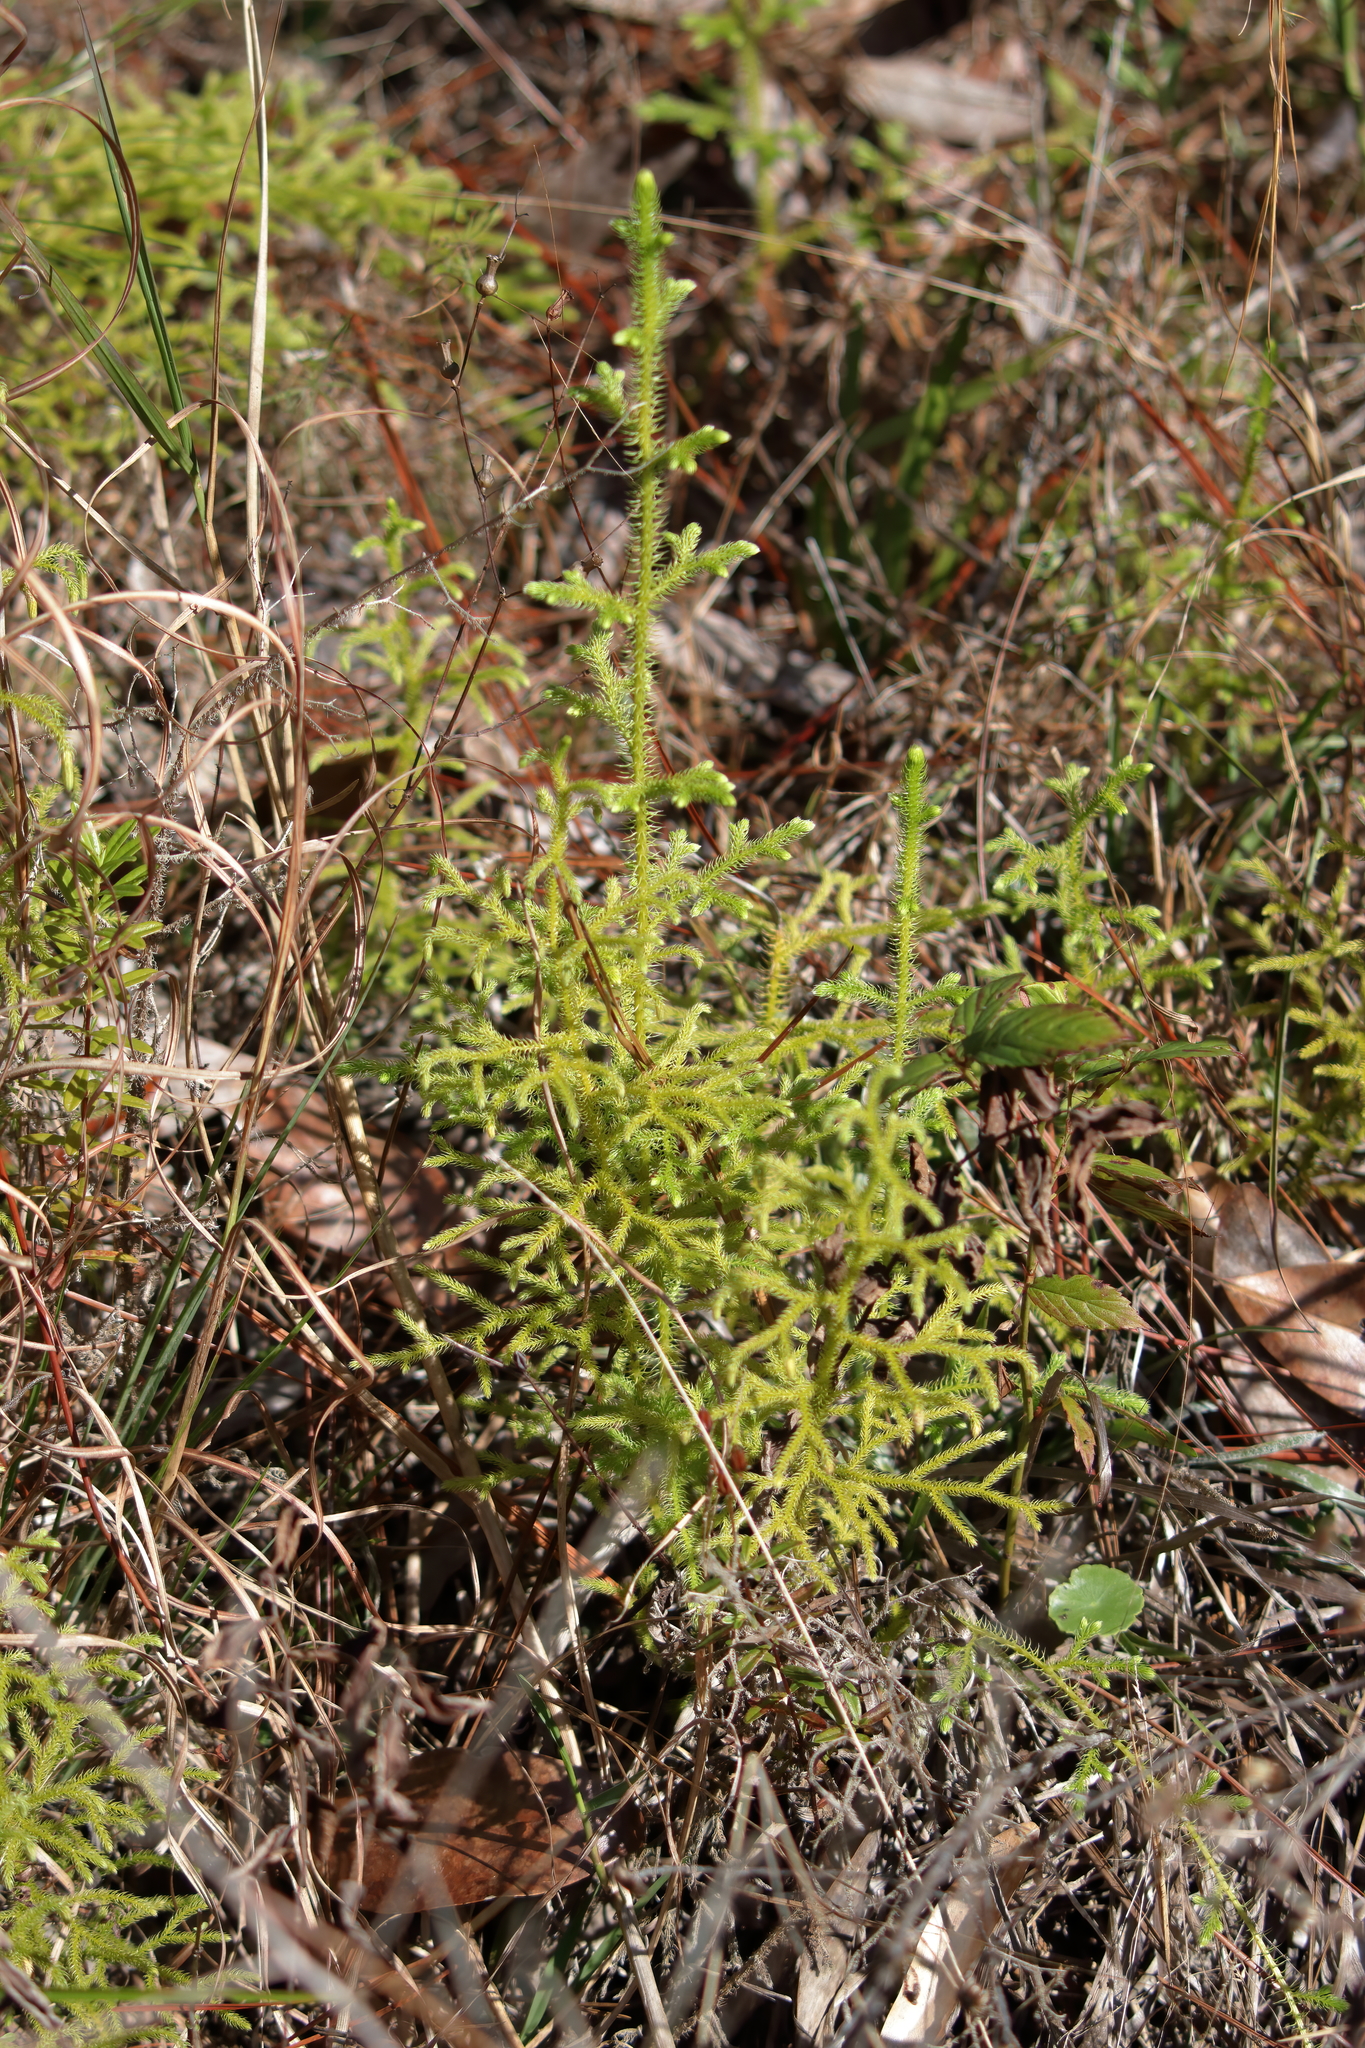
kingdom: Plantae
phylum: Tracheophyta
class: Lycopodiopsida
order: Lycopodiales
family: Lycopodiaceae
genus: Palhinhaea
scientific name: Palhinhaea cernua
